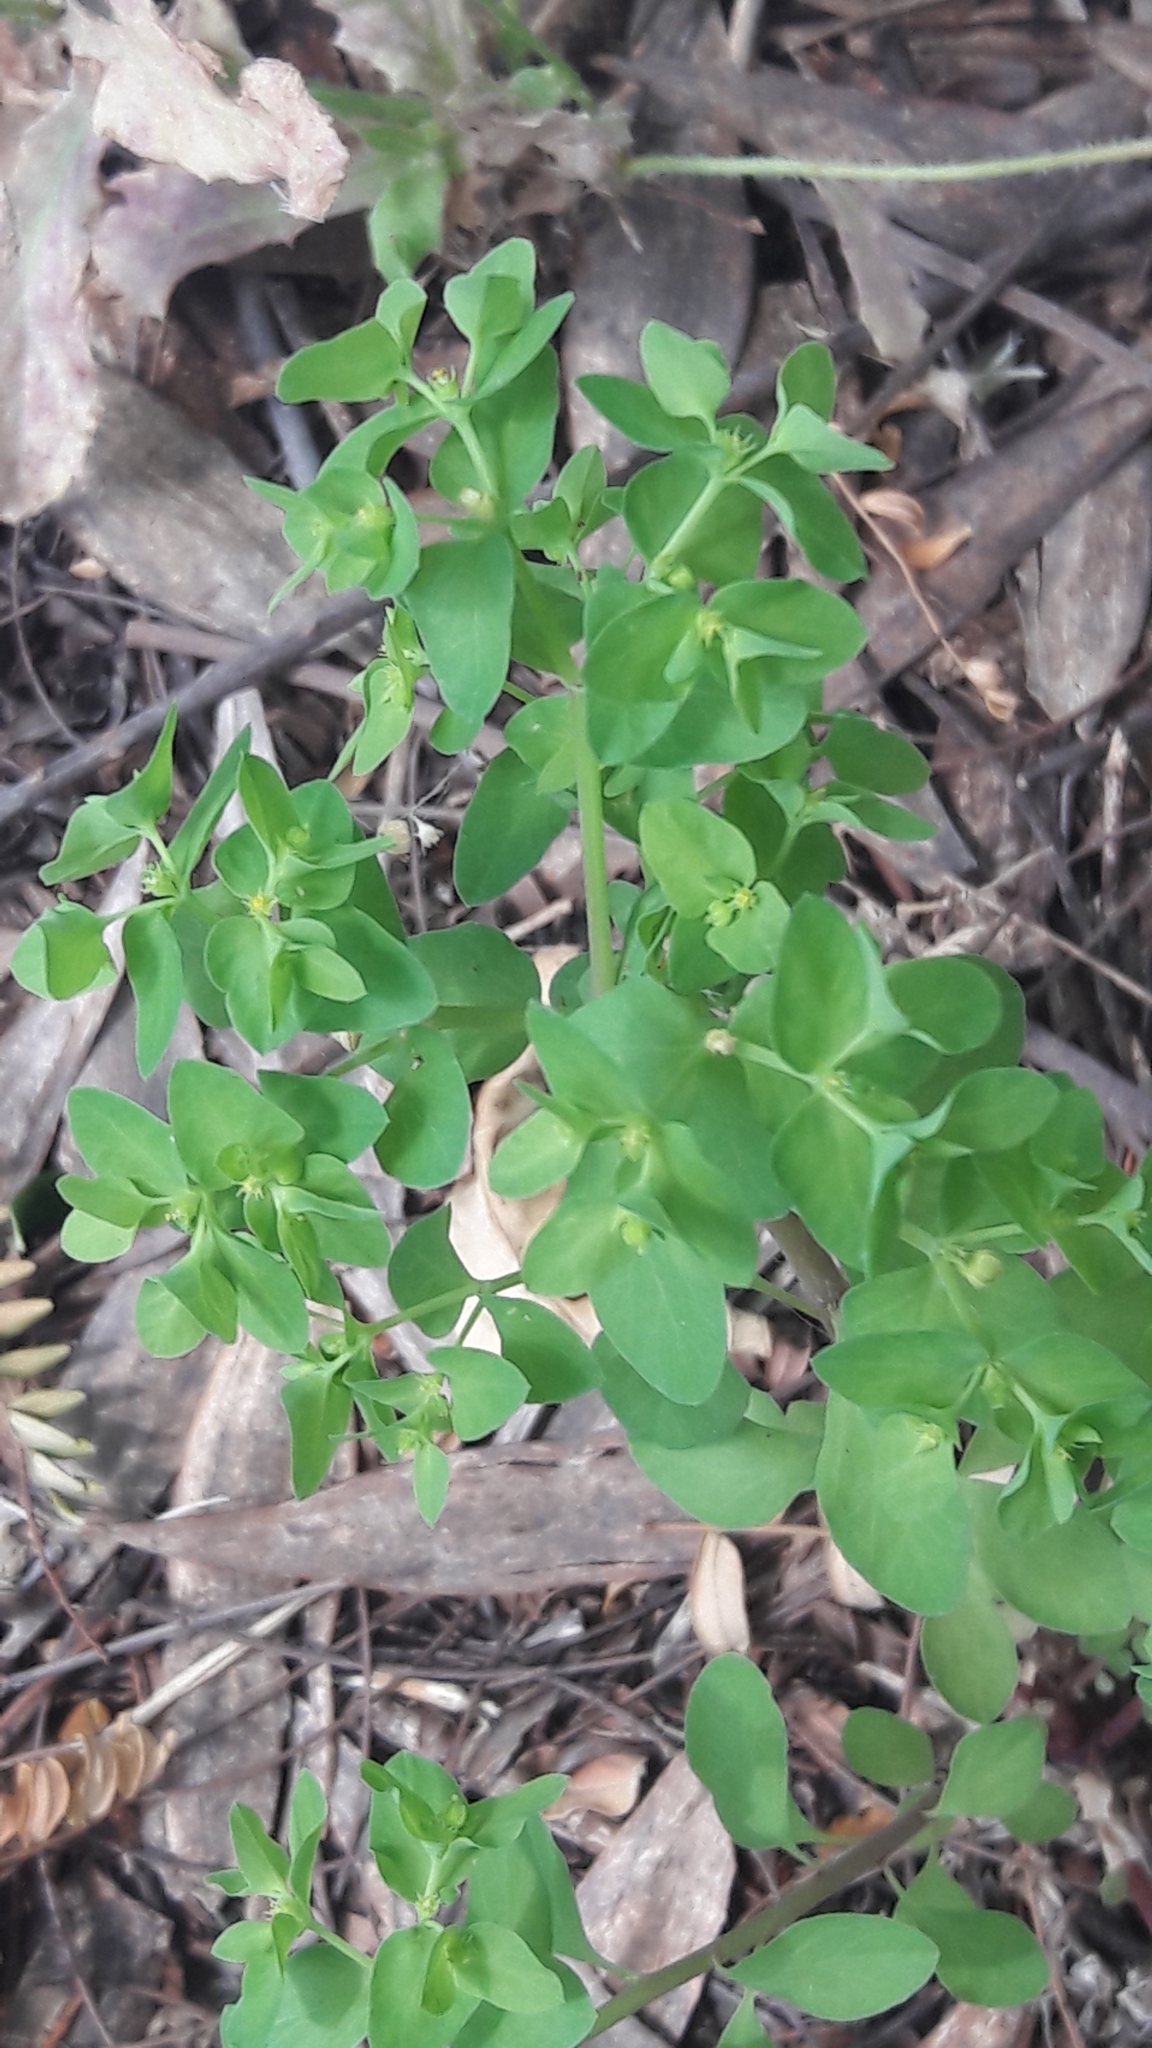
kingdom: Plantae
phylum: Tracheophyta
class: Magnoliopsida
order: Malpighiales
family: Euphorbiaceae
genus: Euphorbia
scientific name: Euphorbia peplus
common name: Petty spurge
